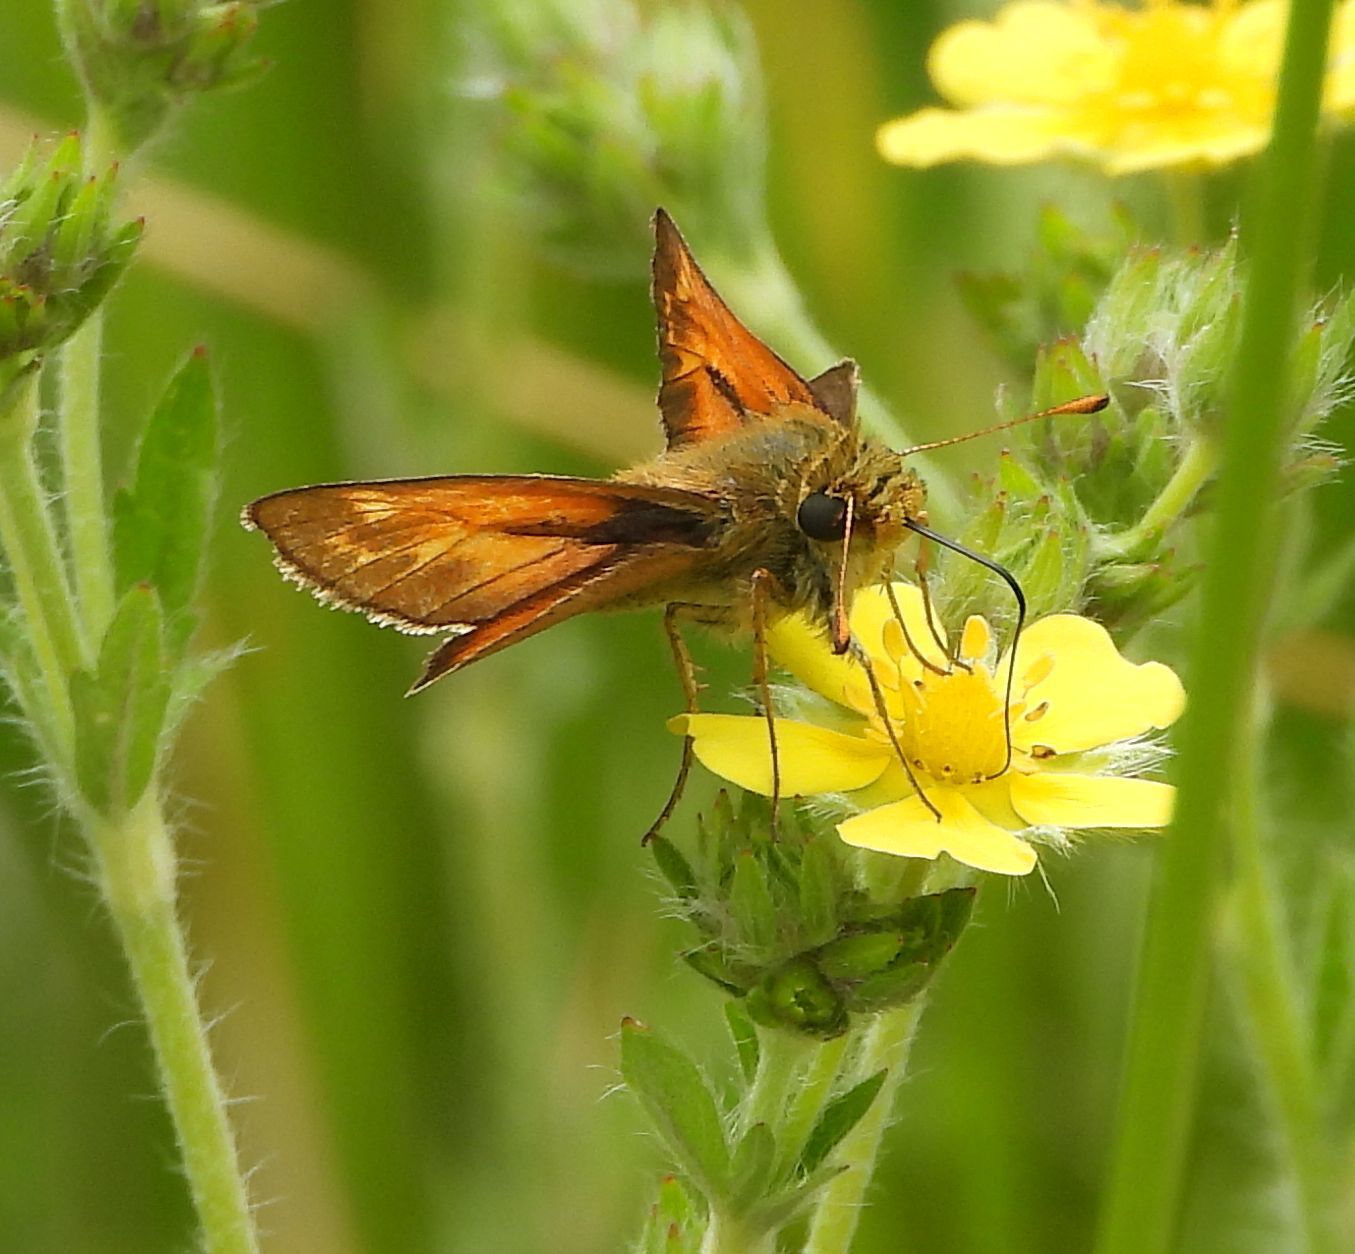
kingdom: Animalia
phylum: Arthropoda
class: Insecta
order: Lepidoptera
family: Hesperiidae
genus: Hesperia
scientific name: Hesperia sassacus
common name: Indian skipper
